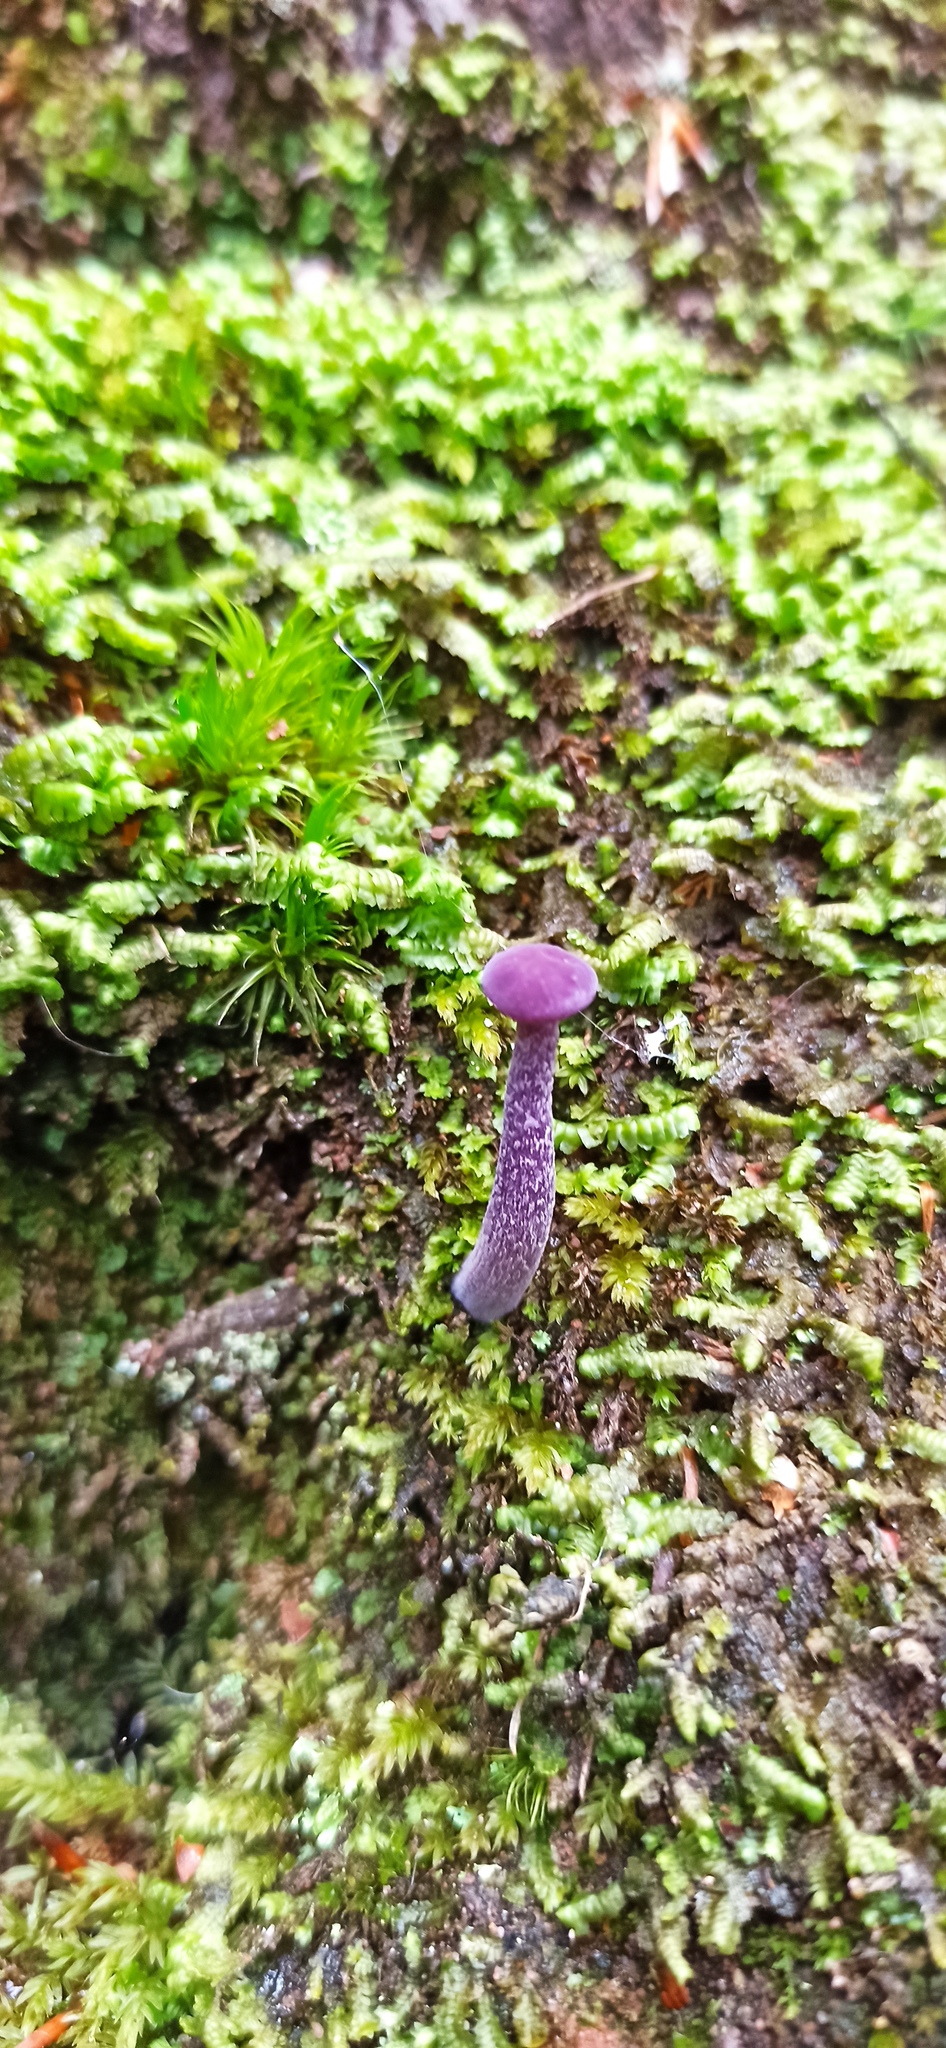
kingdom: Fungi
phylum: Basidiomycota
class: Agaricomycetes
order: Agaricales
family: Hydnangiaceae
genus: Laccaria
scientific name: Laccaria amethystina
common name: Amethyst deceiver
